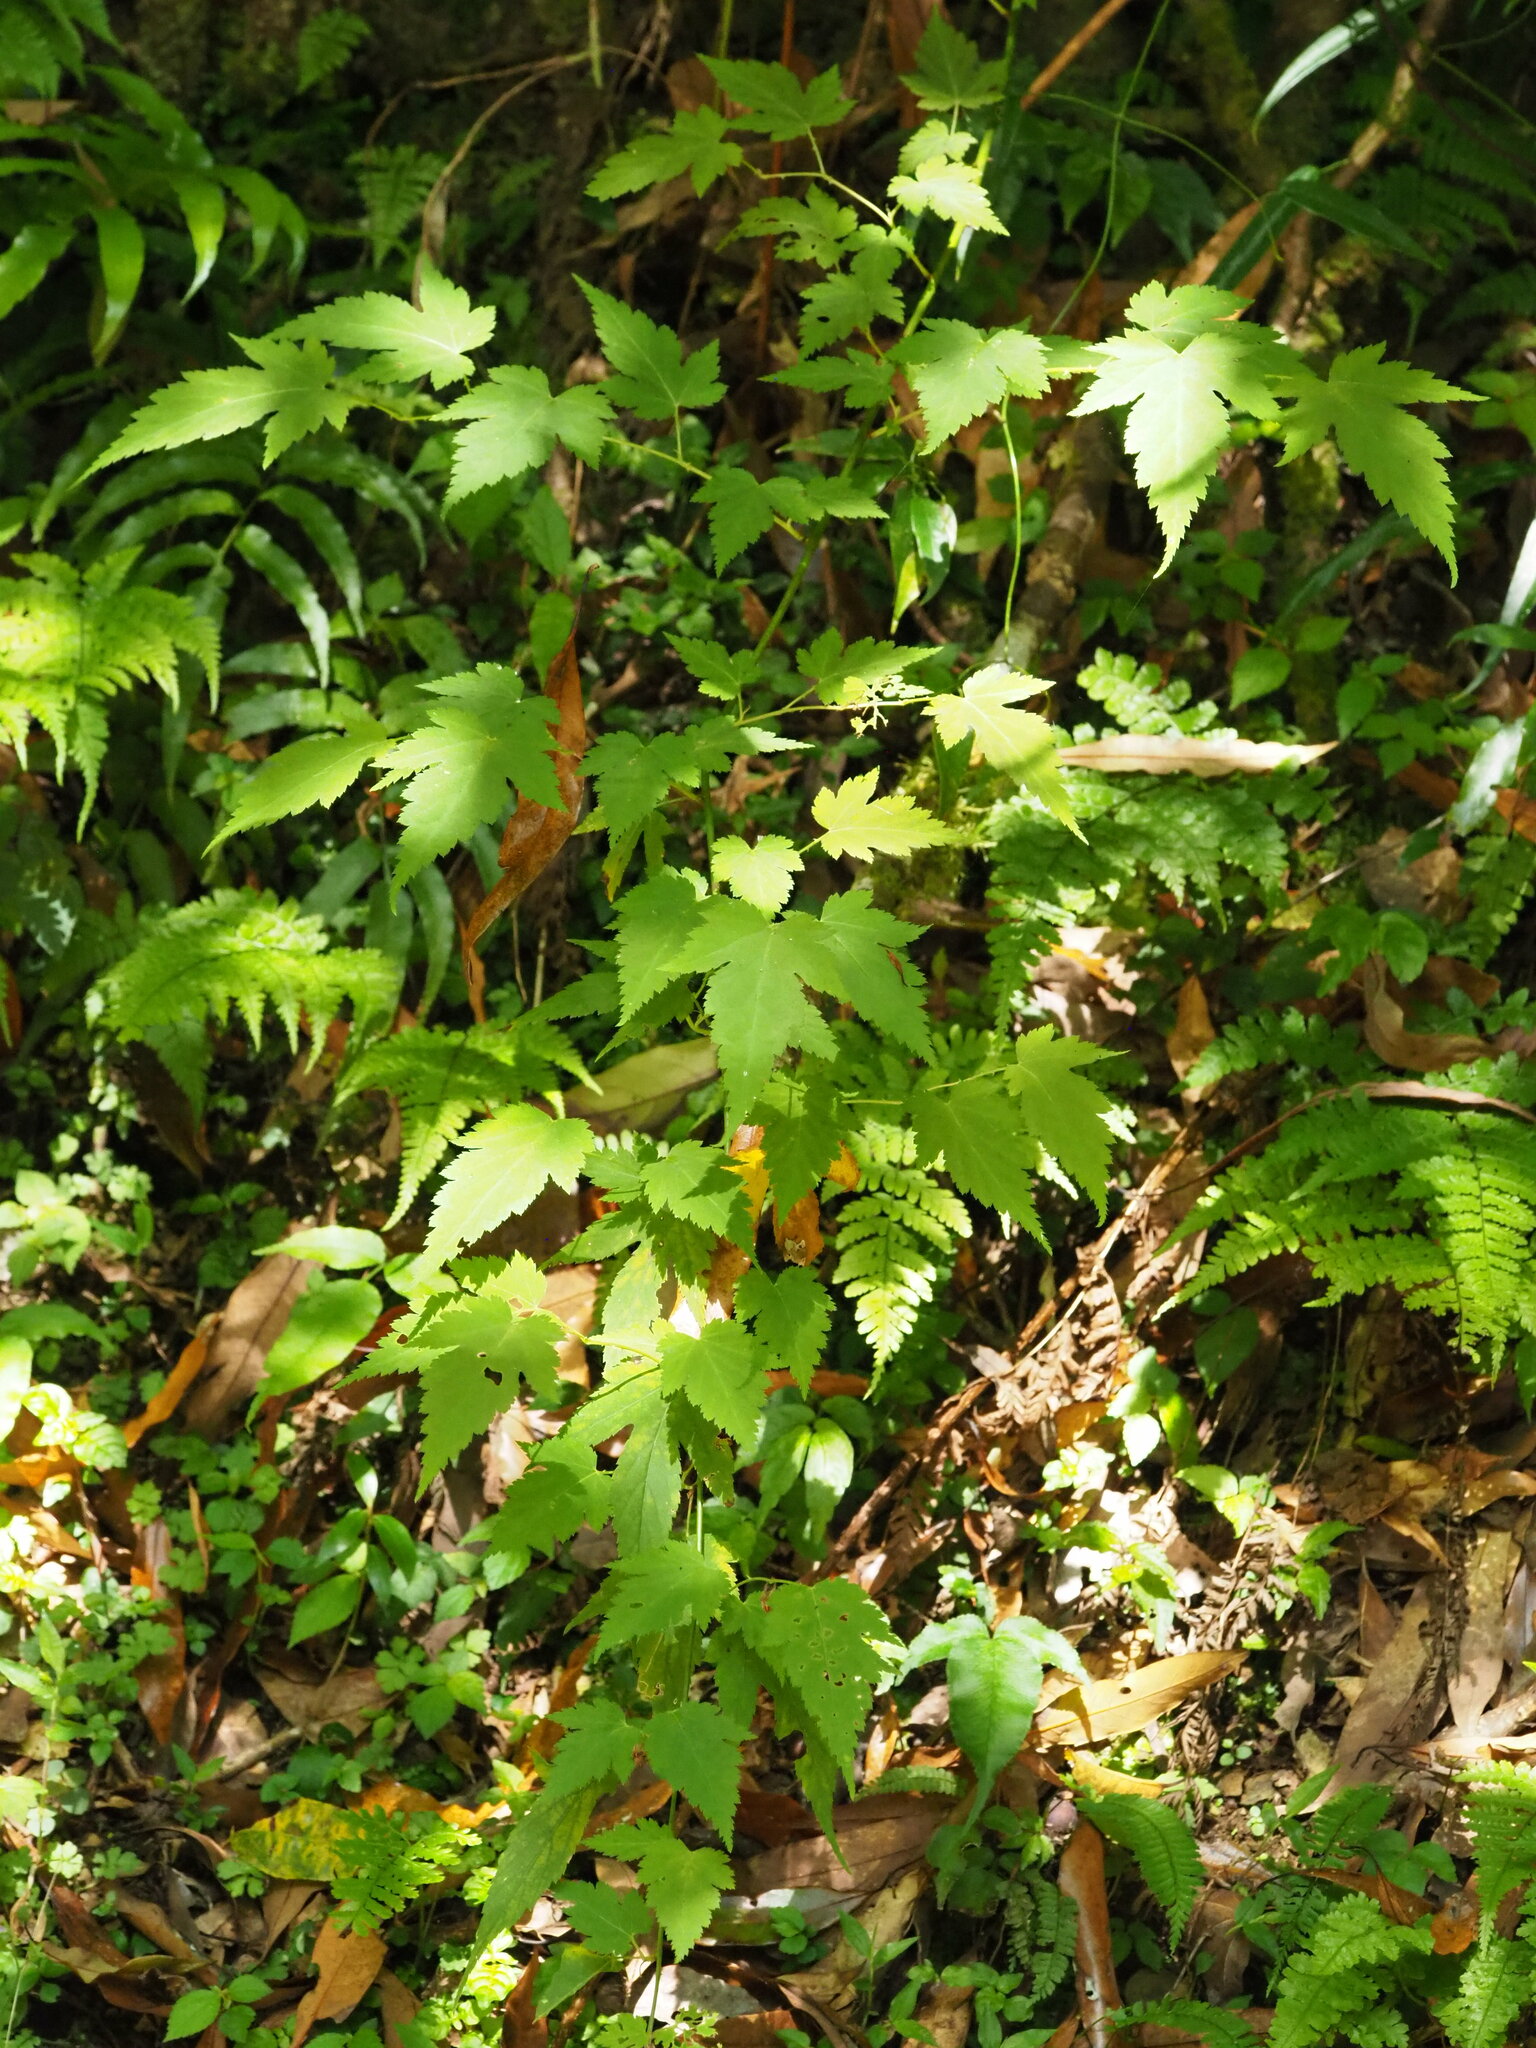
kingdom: Plantae
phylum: Tracheophyta
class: Magnoliopsida
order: Rosales
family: Rosaceae
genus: Rubus
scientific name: Rubus corchorifolius
